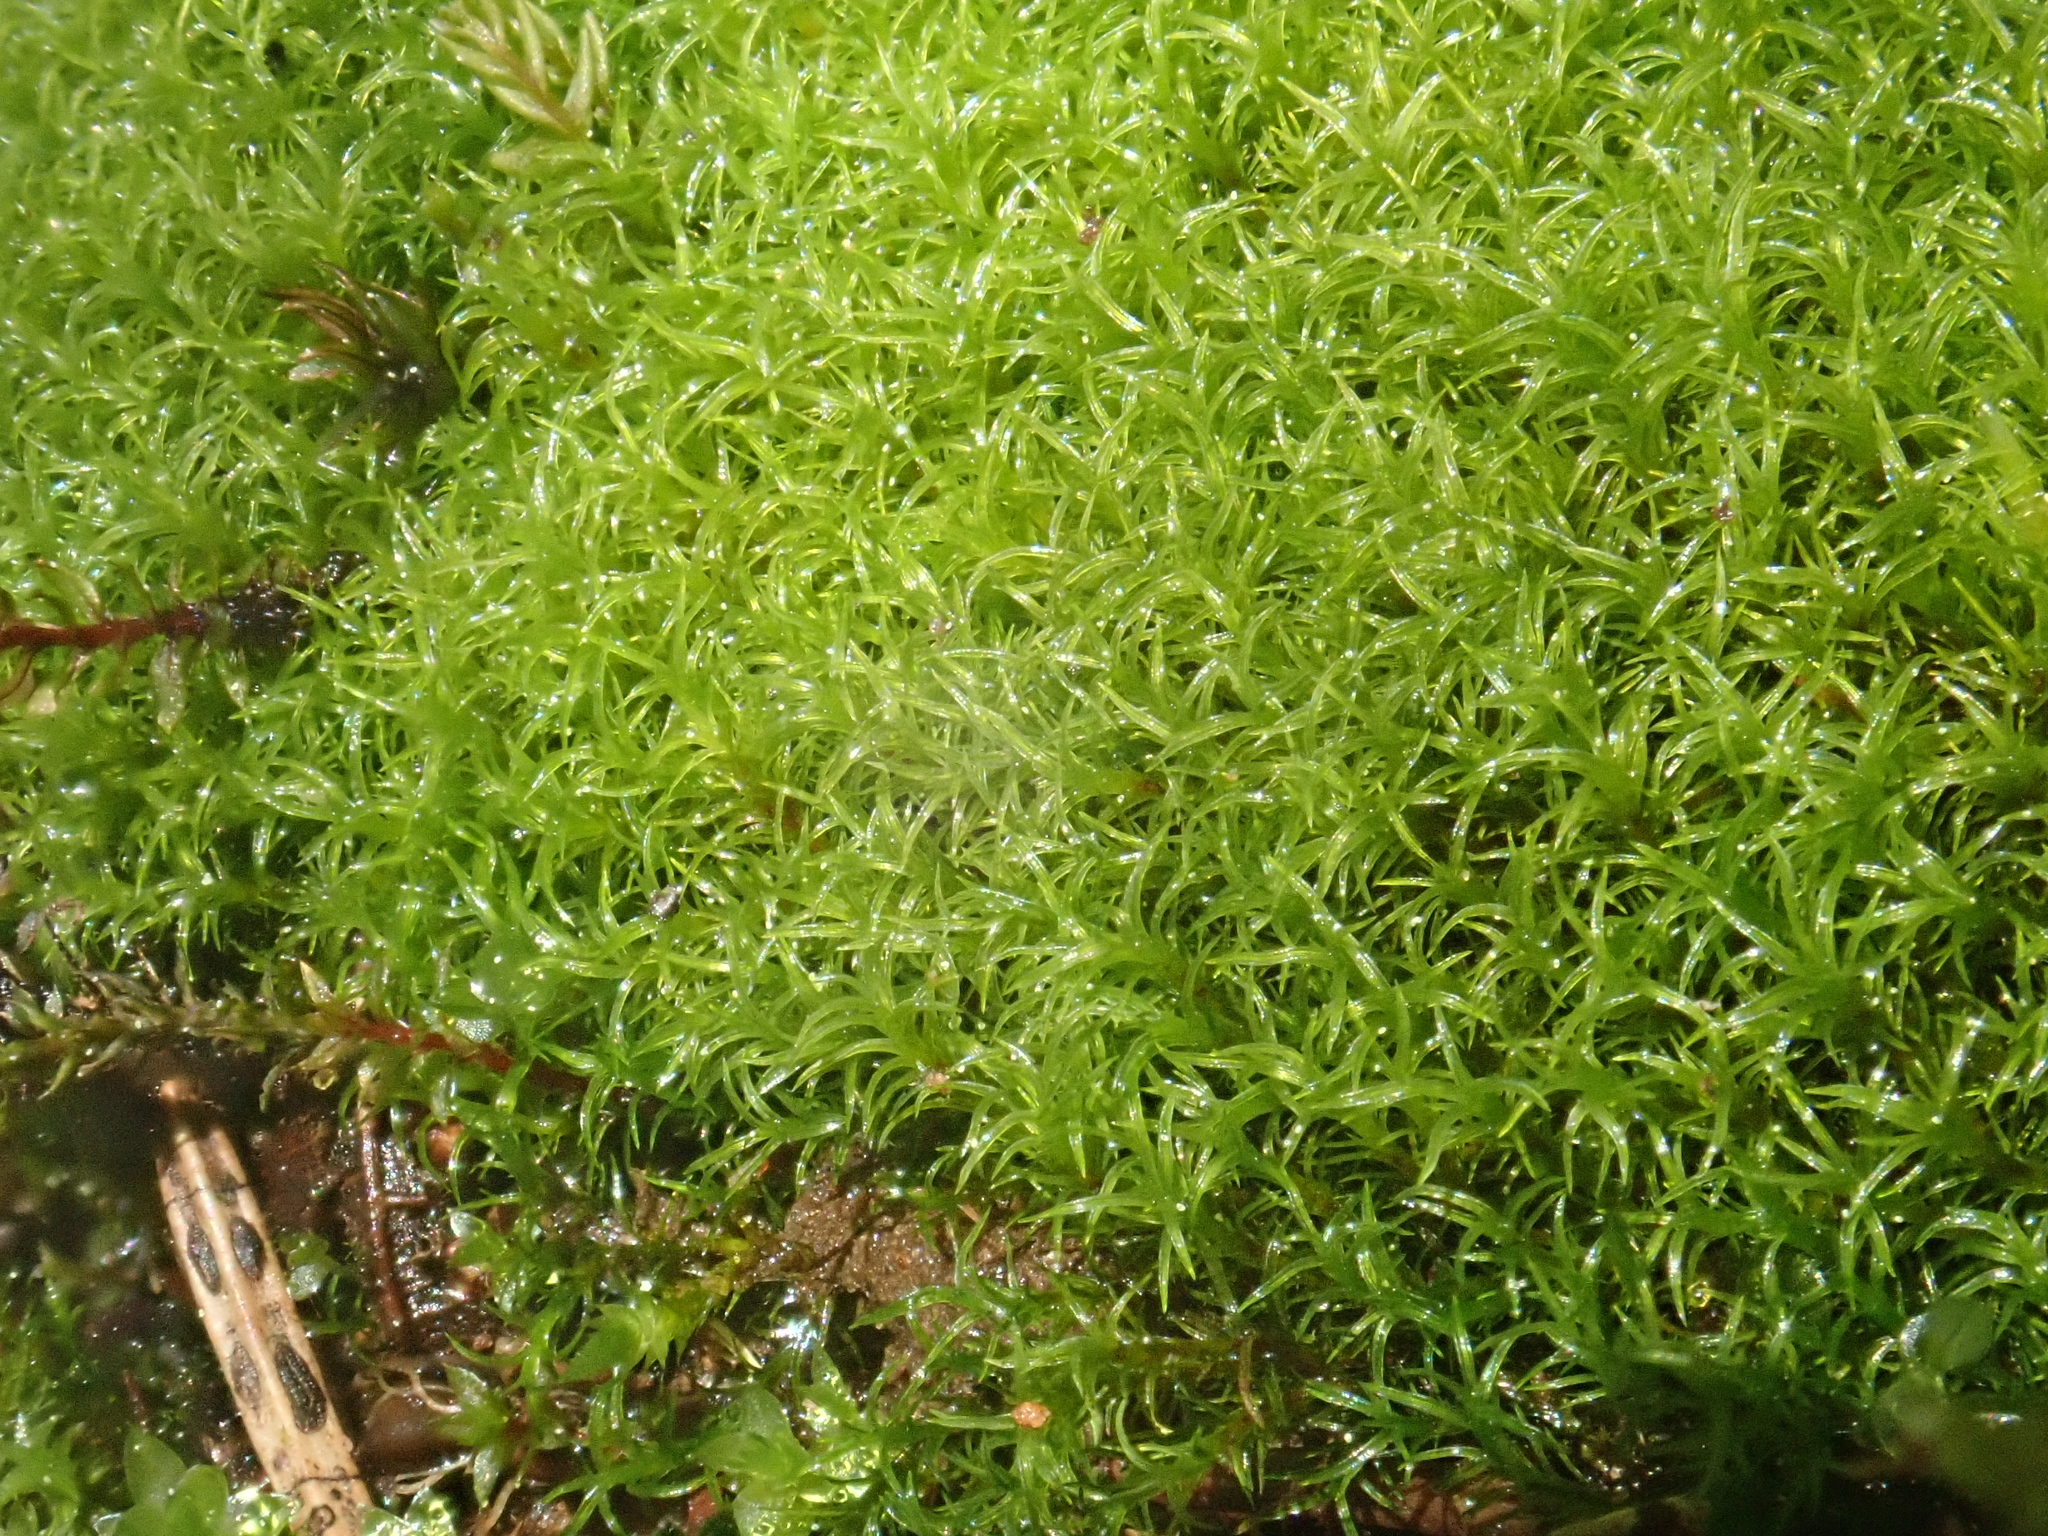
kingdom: Plantae
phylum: Bryophyta
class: Bryopsida
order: Dicranales
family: Amphidiaceae
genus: Amphidium
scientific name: Amphidium mougeotii
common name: Mougeot's yoke moss
